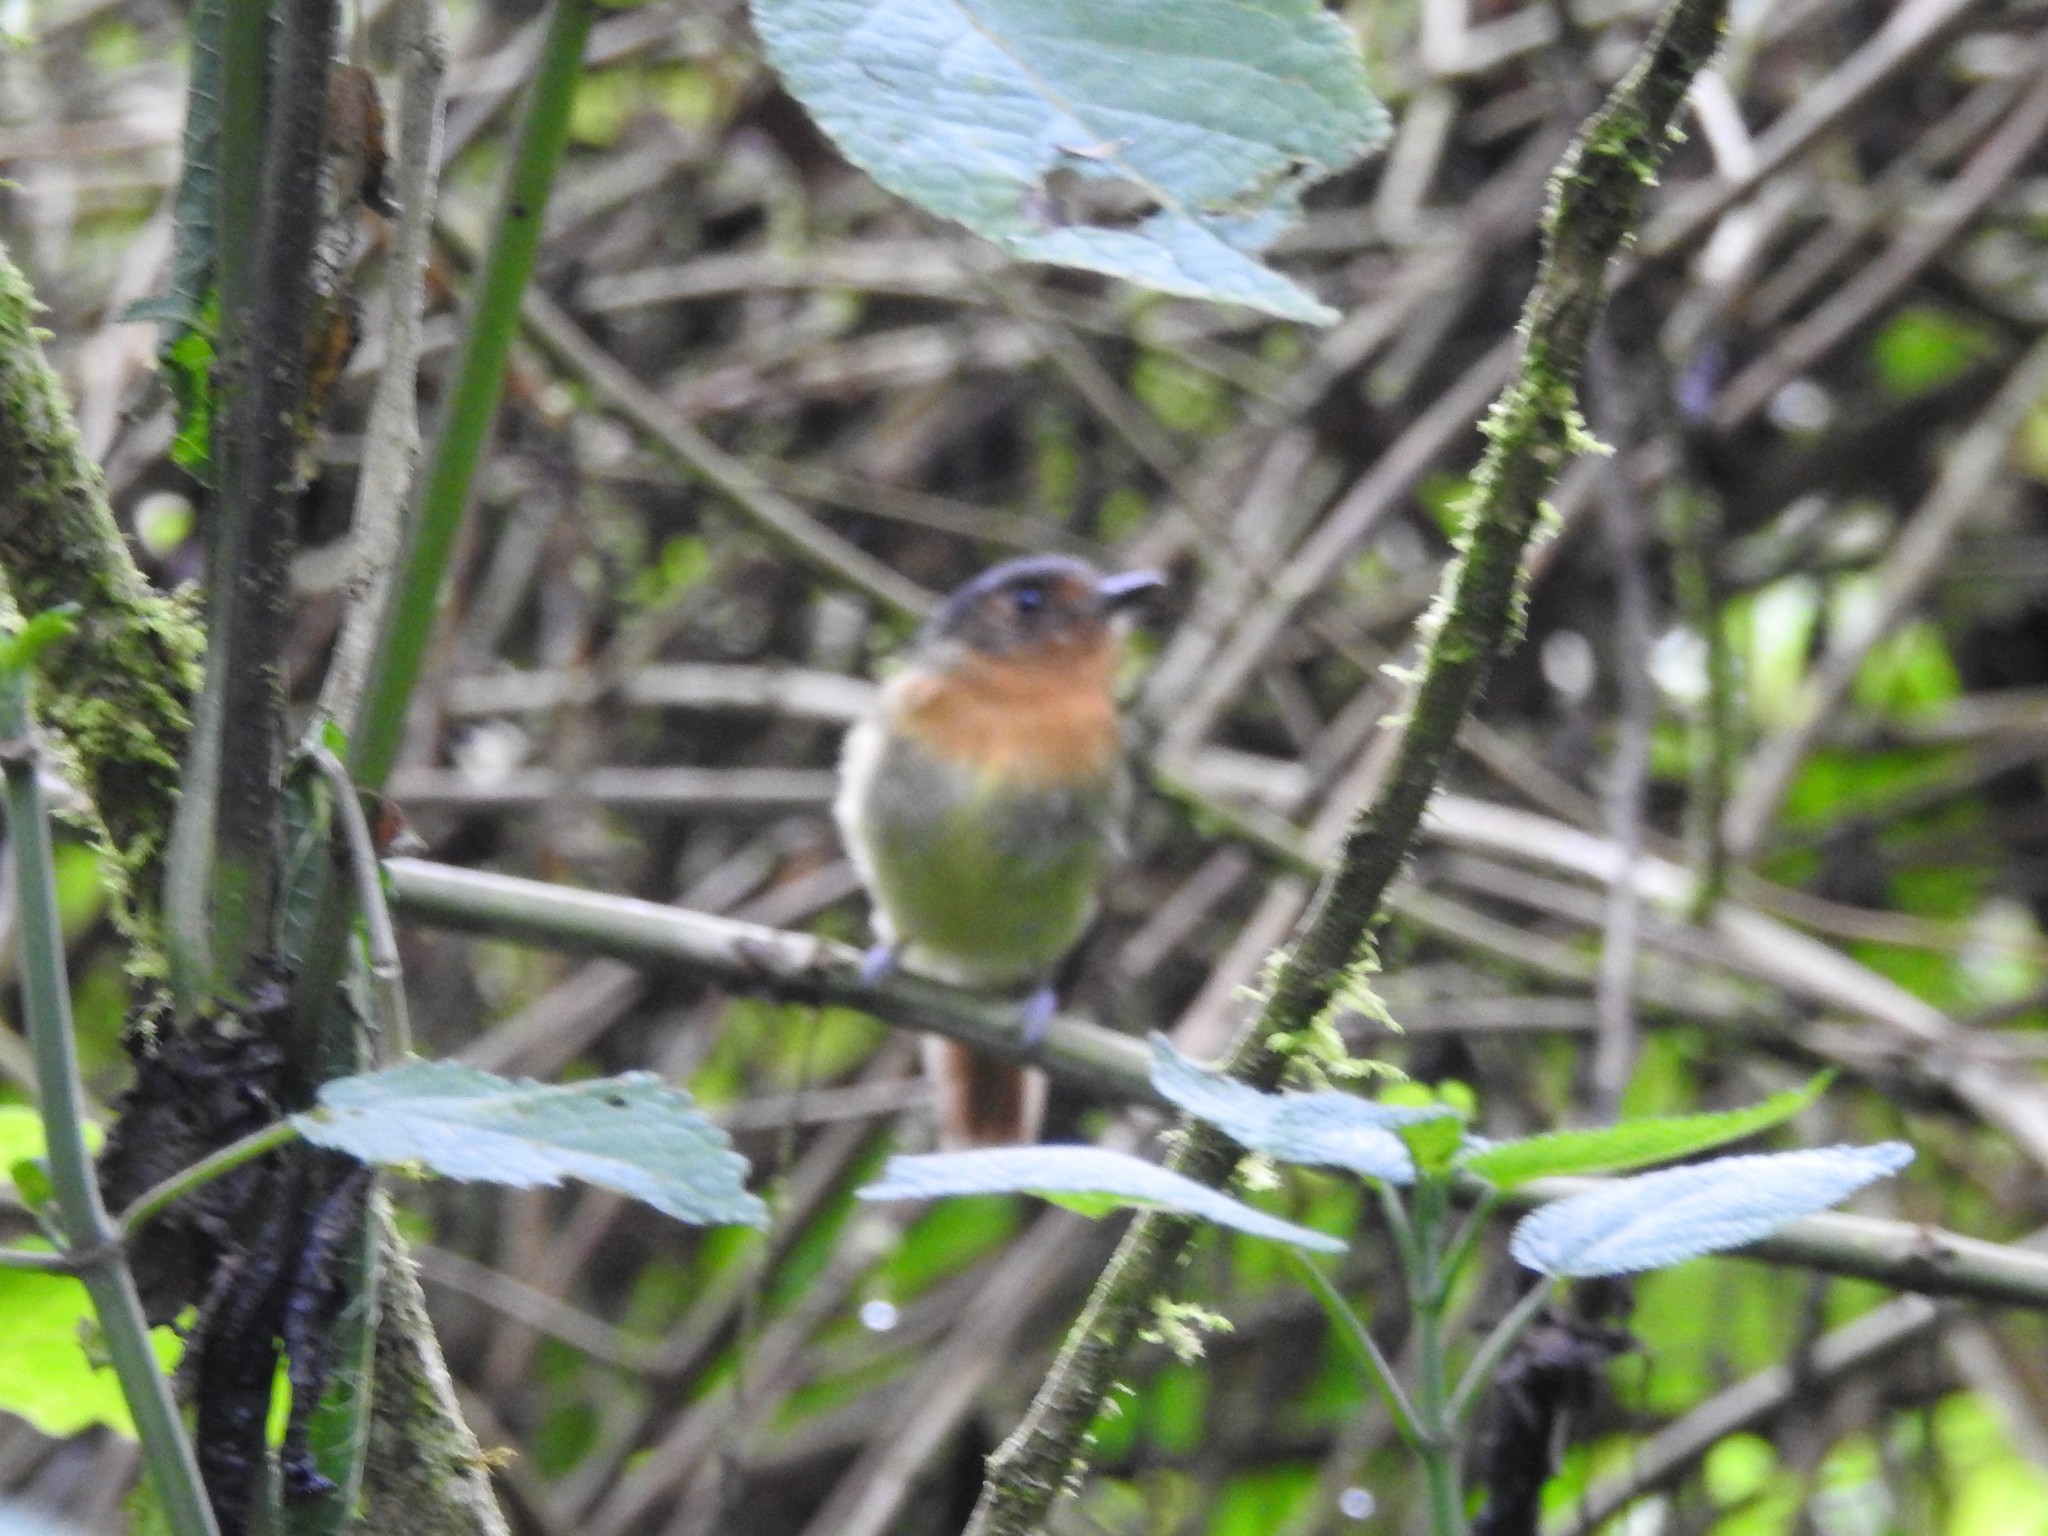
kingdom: Animalia
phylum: Chordata
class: Aves
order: Passeriformes
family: Tyrannidae
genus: Leptopogon
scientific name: Leptopogon rufipectus
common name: Rufous-breasted flycatcher
